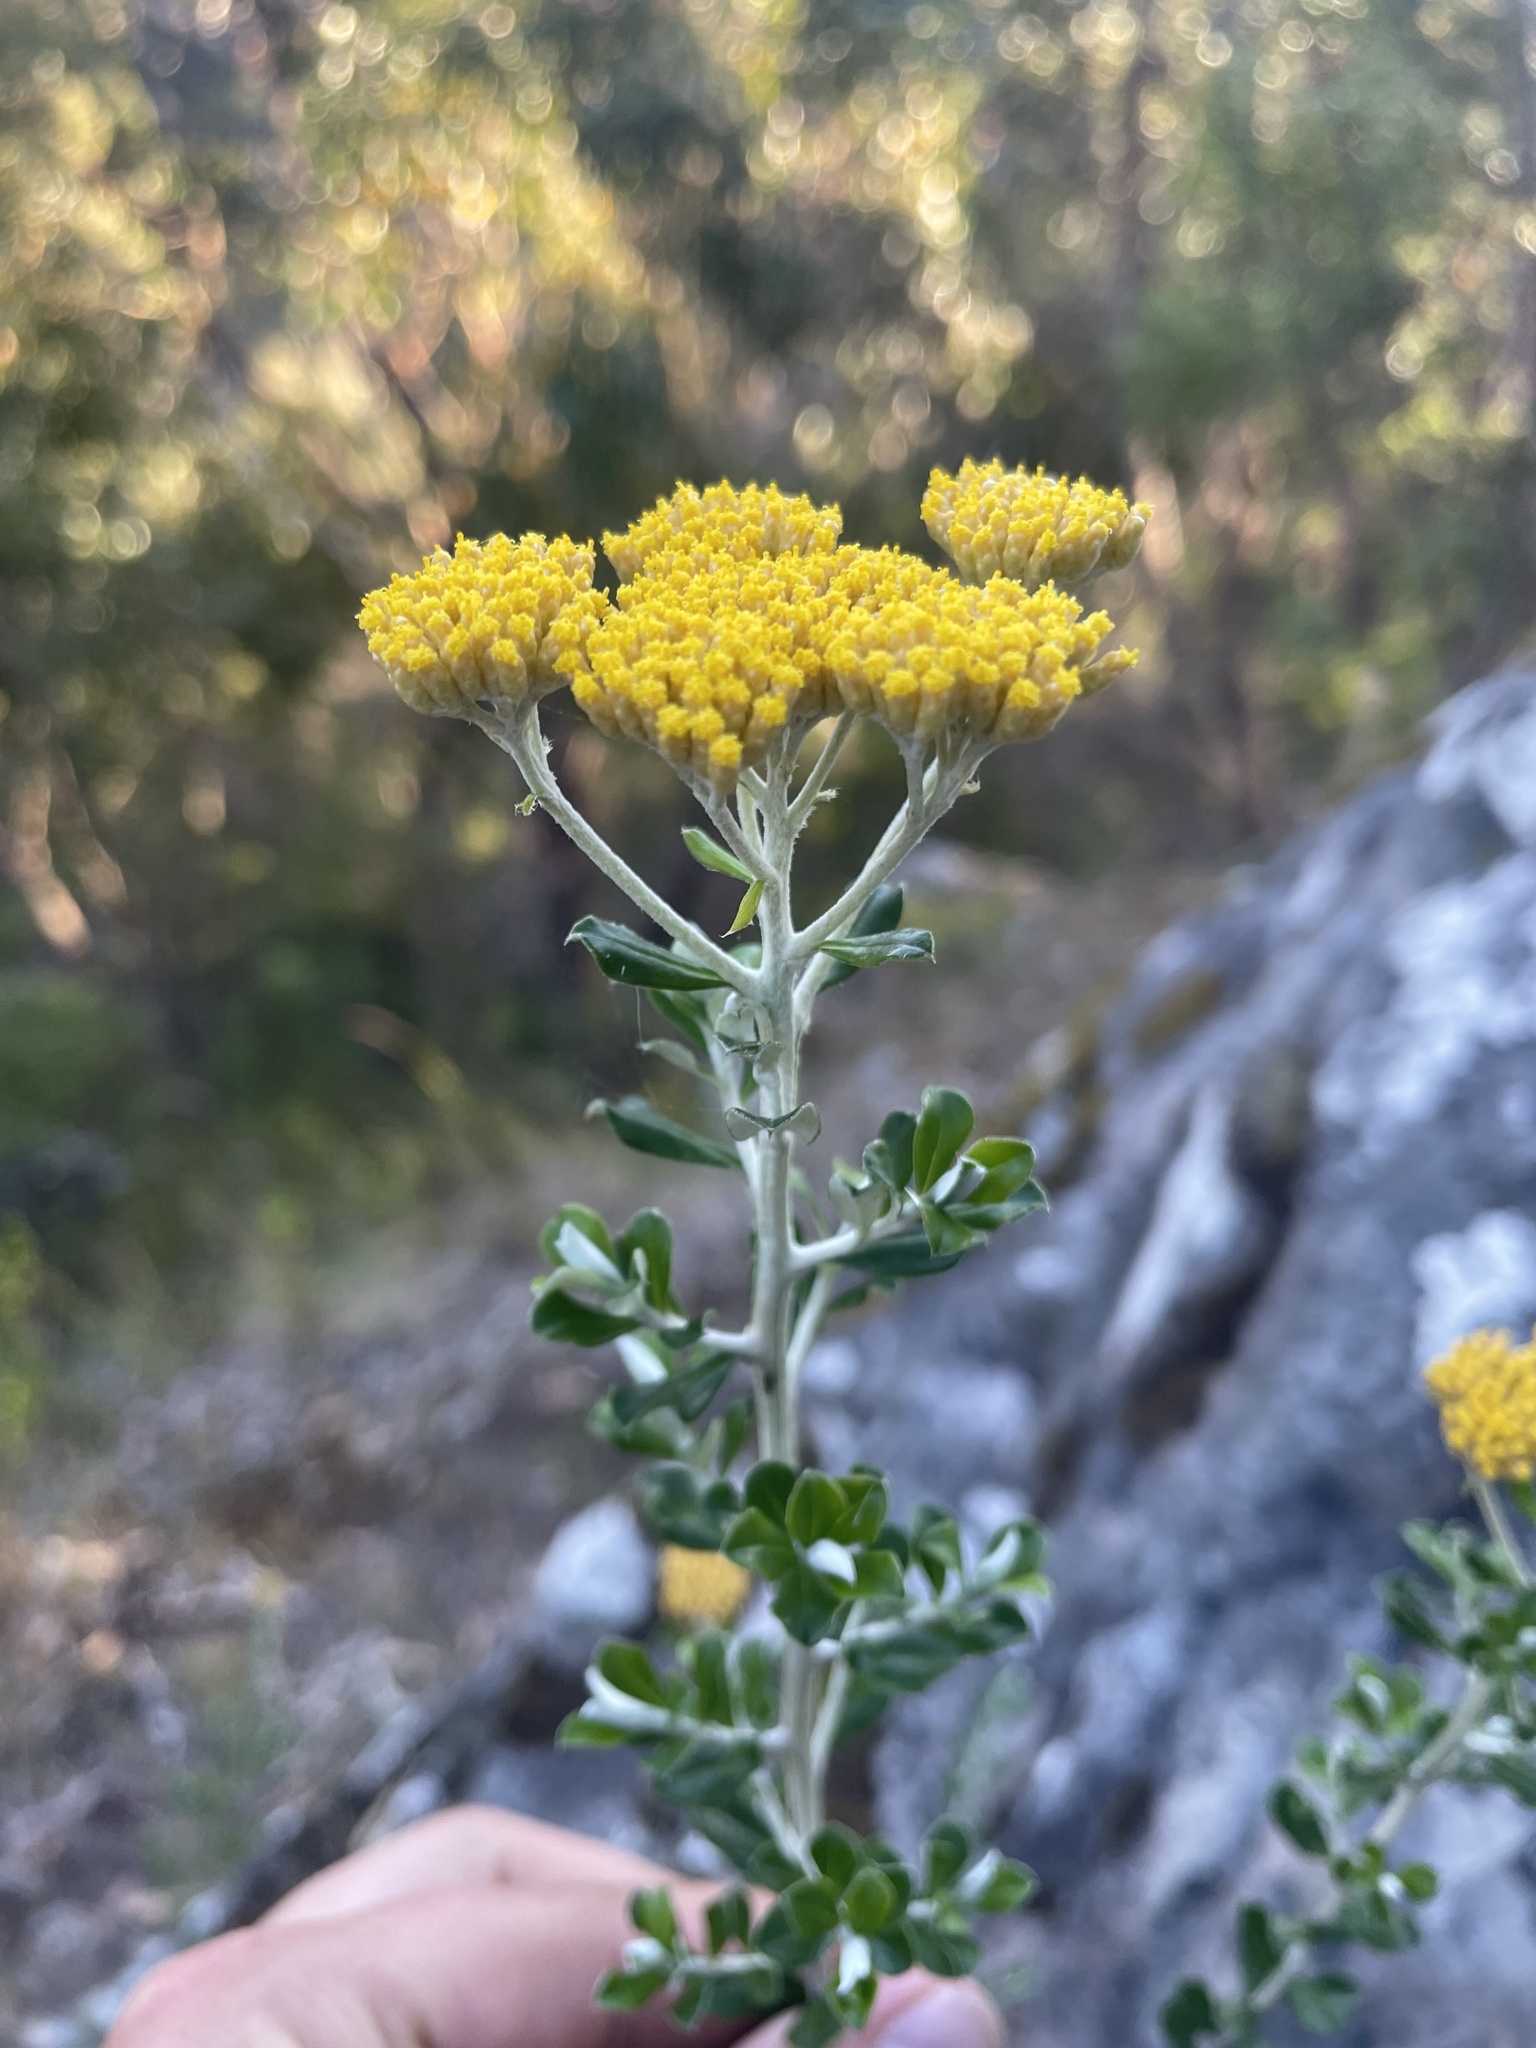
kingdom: Plantae
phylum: Tracheophyta
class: Magnoliopsida
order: Asterales
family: Asteraceae
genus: Ozothamnus
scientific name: Ozothamnus obcordatus
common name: Grey everlasting
